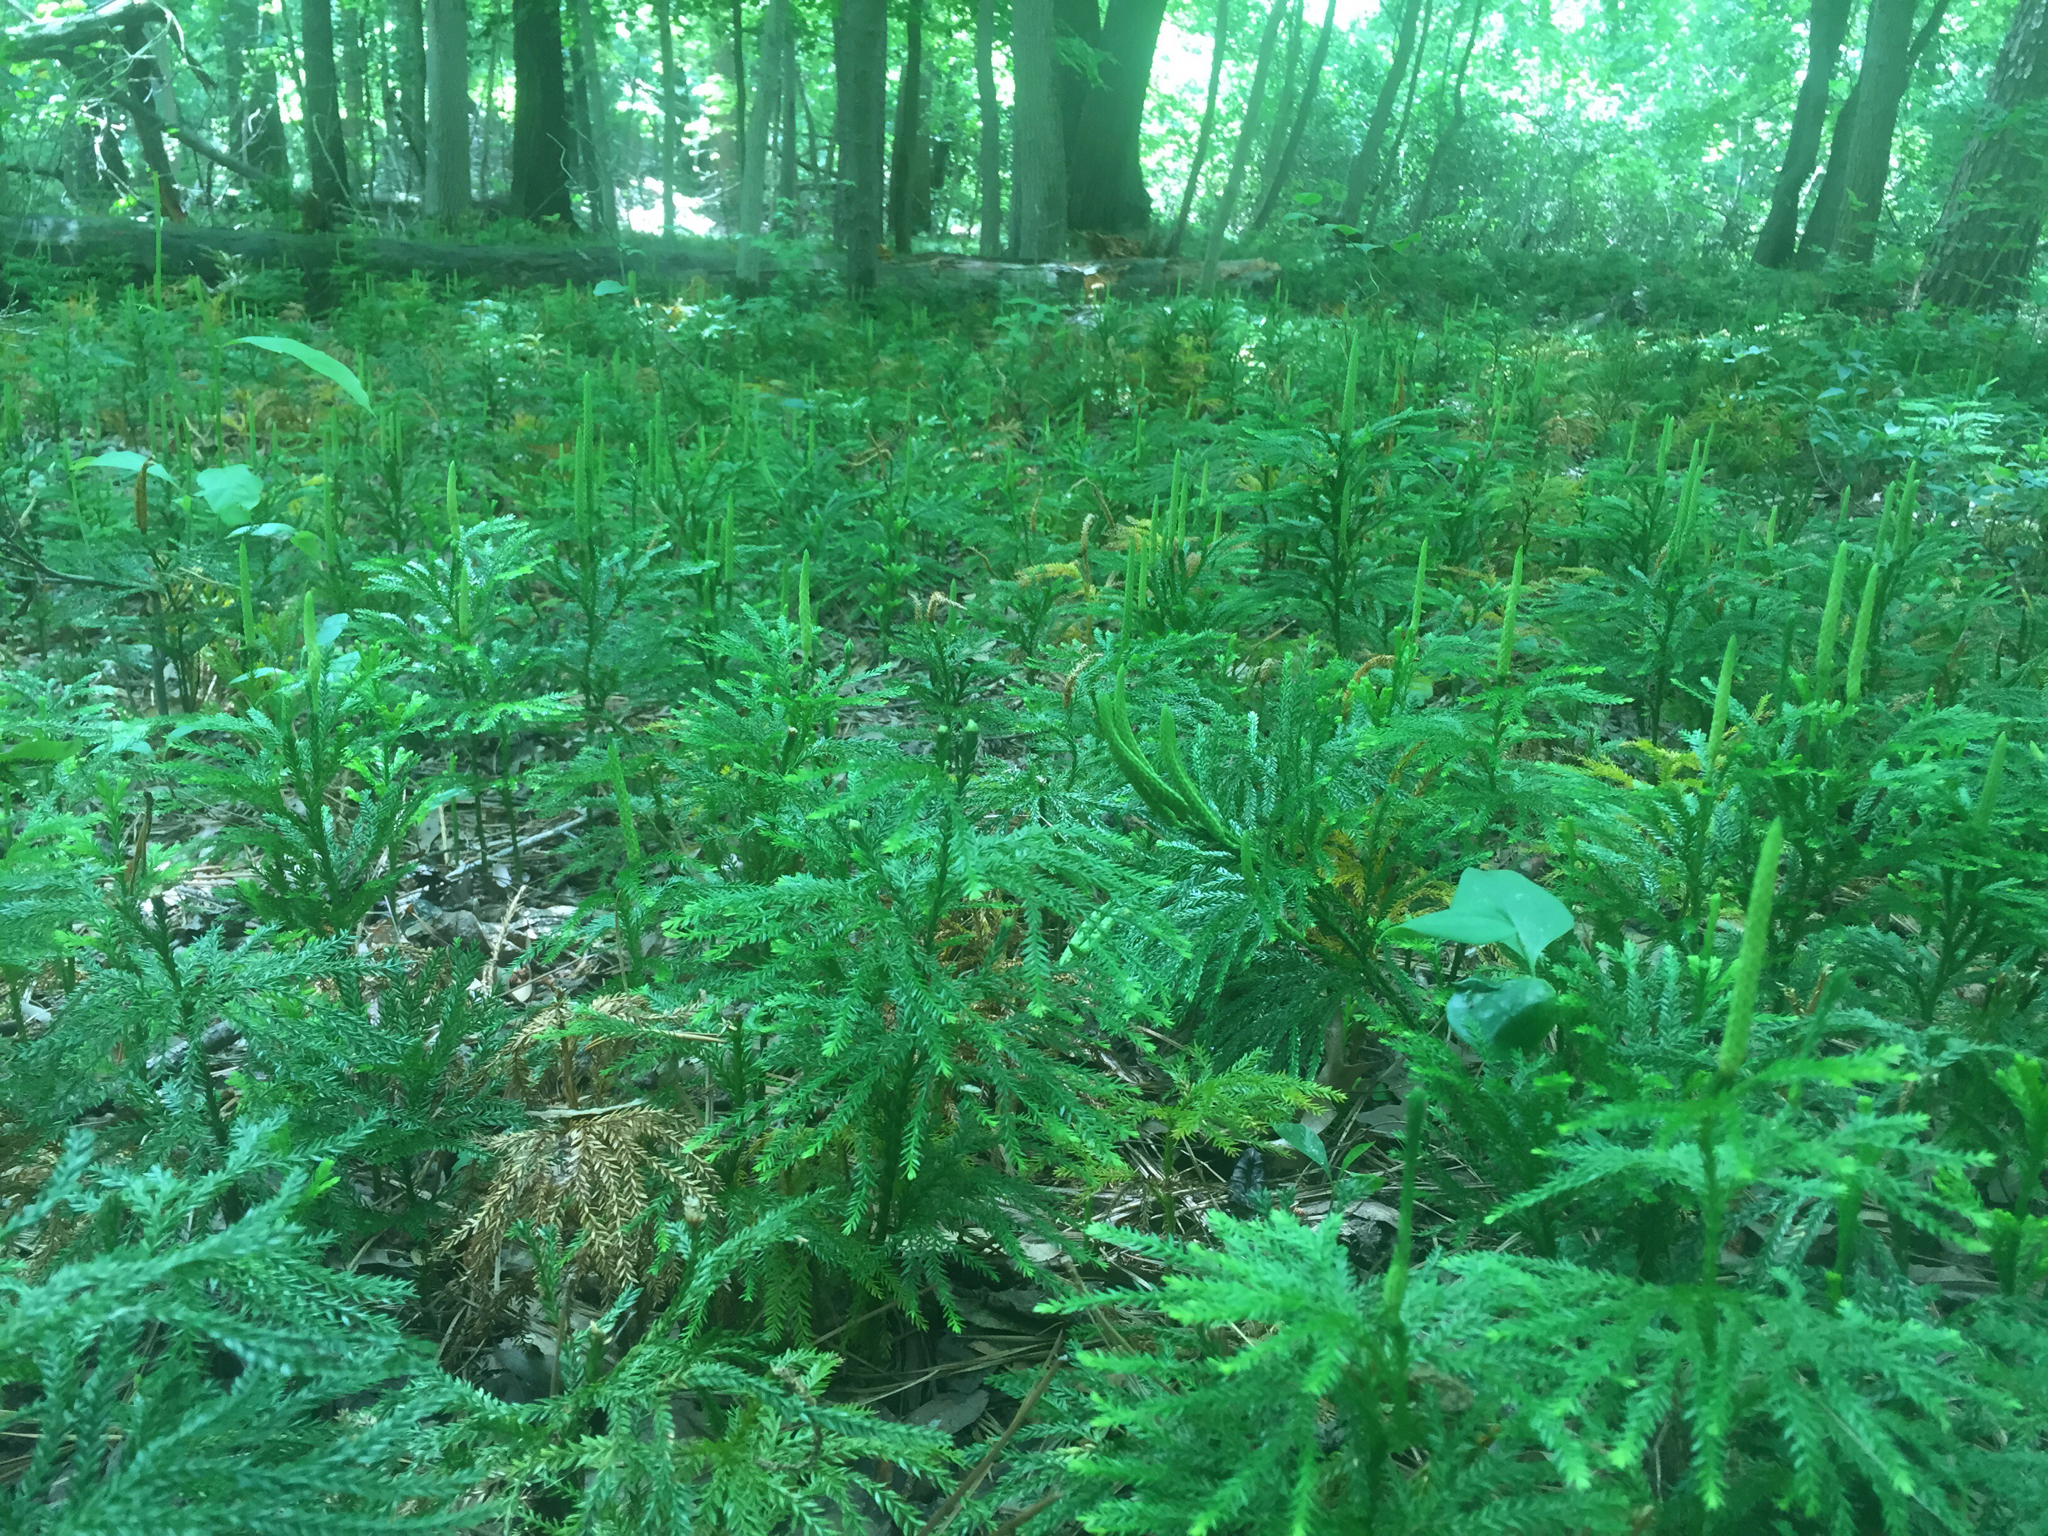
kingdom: Plantae
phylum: Tracheophyta
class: Lycopodiopsida
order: Lycopodiales
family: Lycopodiaceae
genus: Dendrolycopodium
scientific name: Dendrolycopodium obscurum
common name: Common ground-pine
